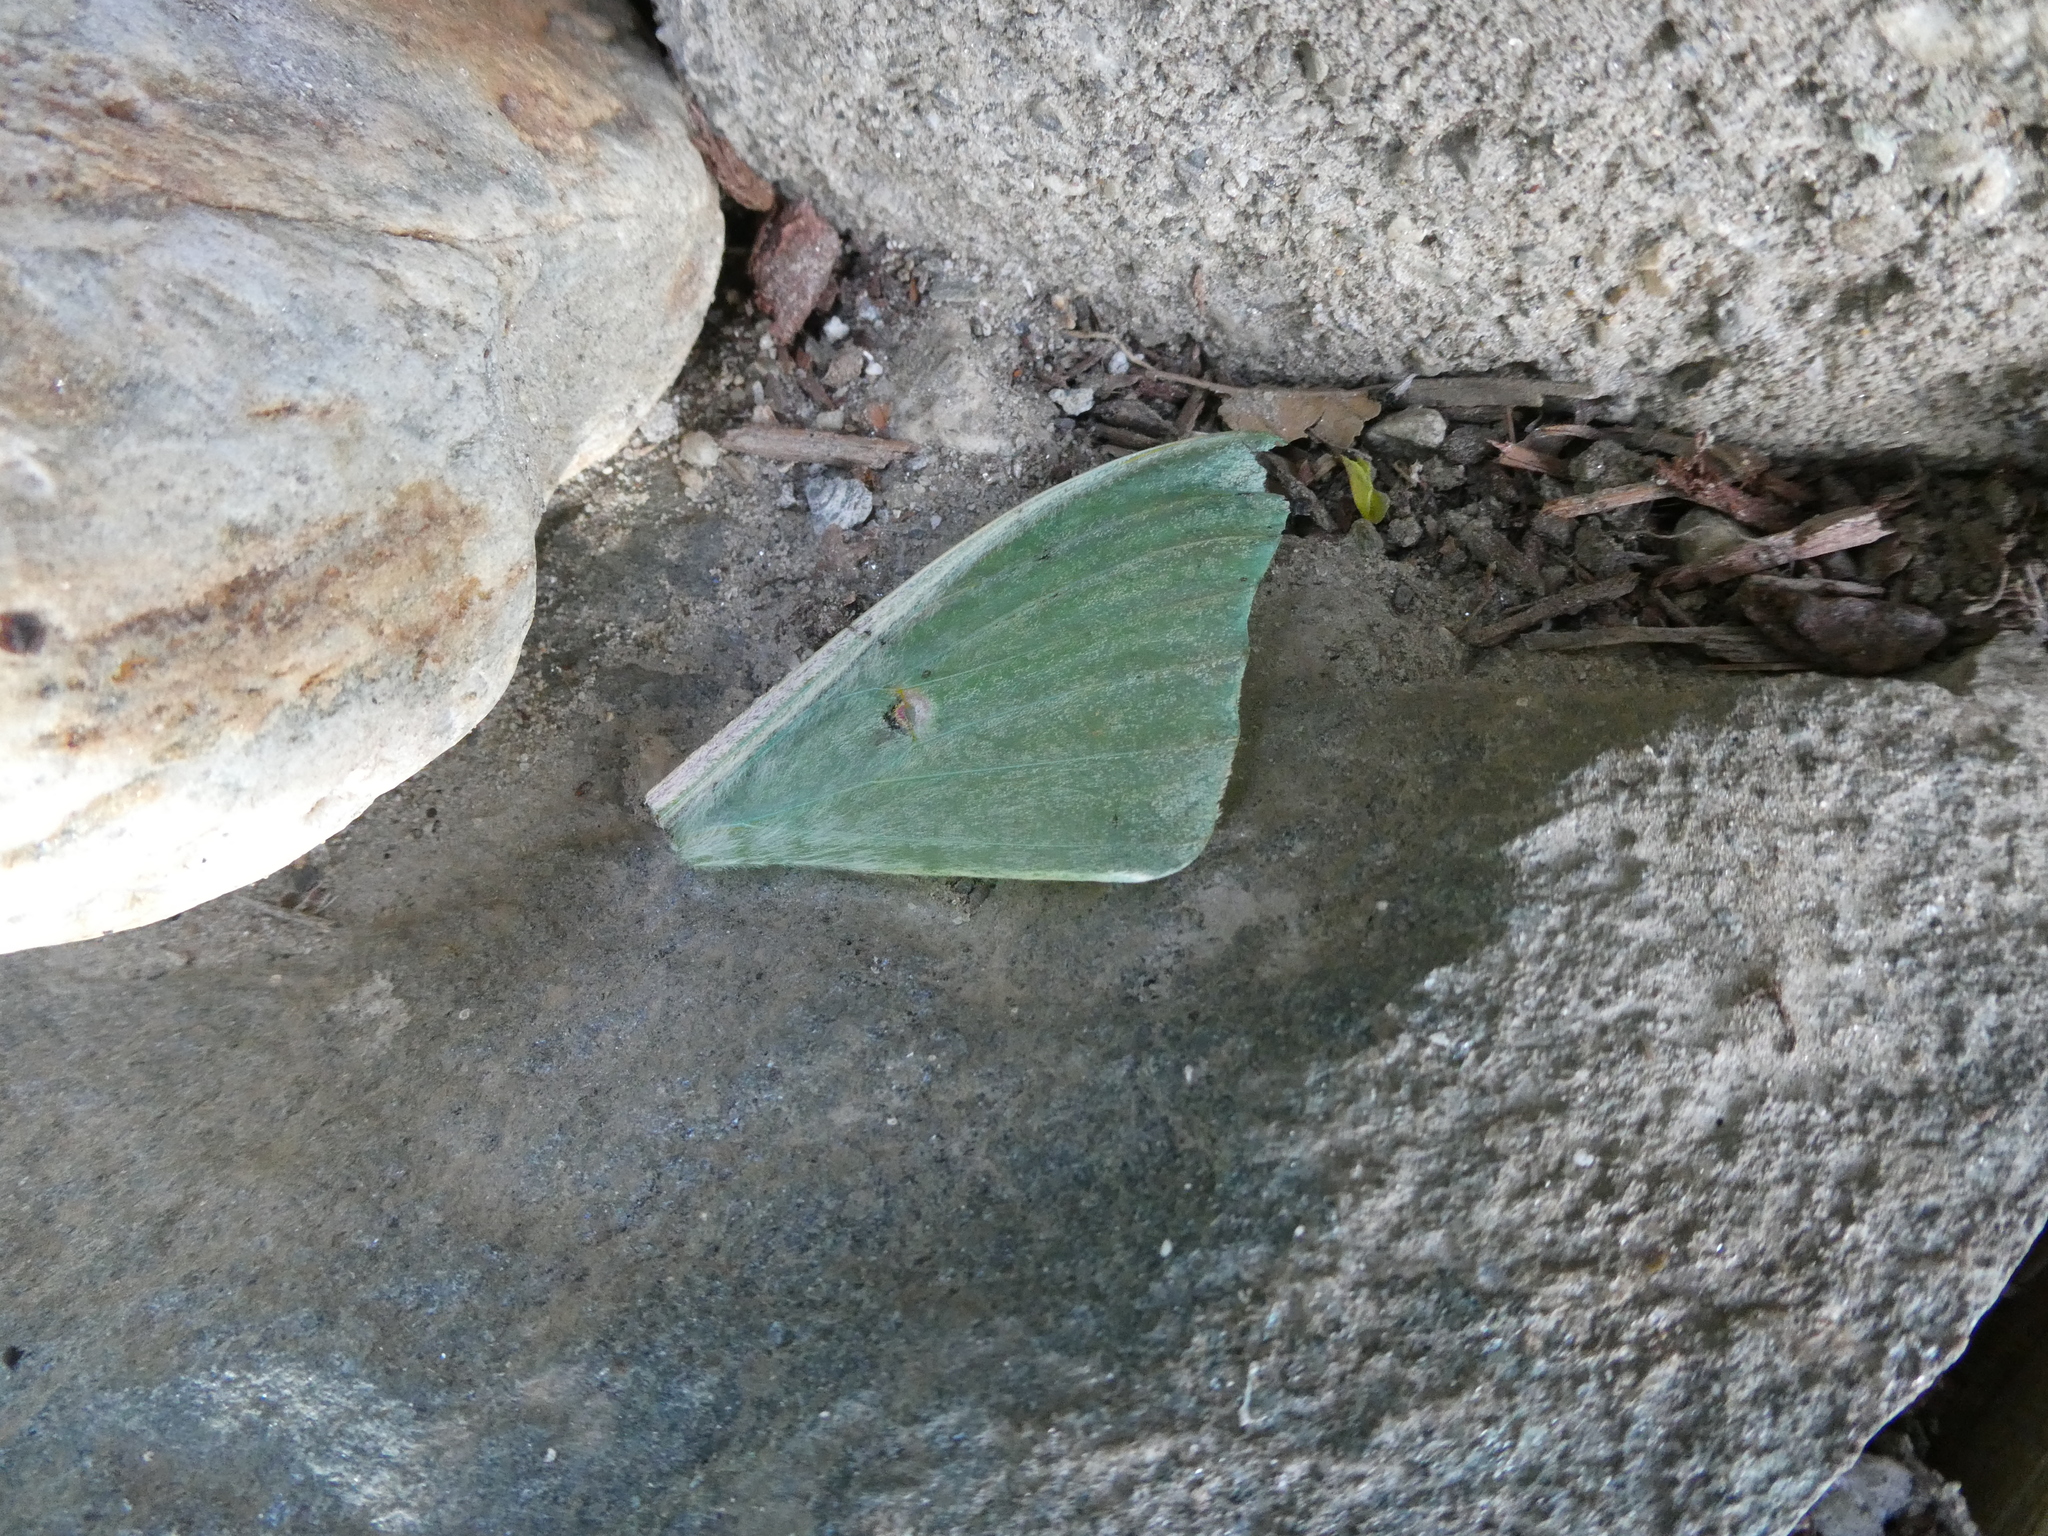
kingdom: Animalia
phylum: Arthropoda
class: Insecta
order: Lepidoptera
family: Saturniidae
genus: Actias
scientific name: Actias luna
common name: Luna moth
